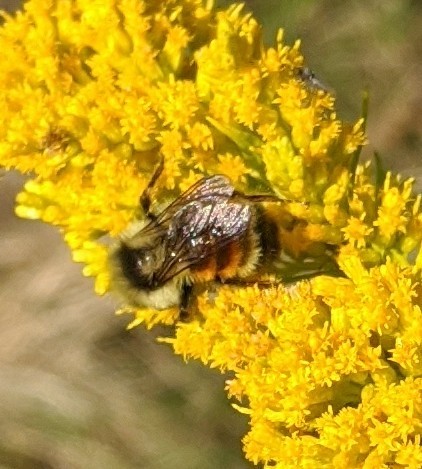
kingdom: Animalia
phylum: Arthropoda
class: Insecta
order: Hymenoptera
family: Apidae
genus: Bombus
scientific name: Bombus ternarius
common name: Tri-colored bumble bee
